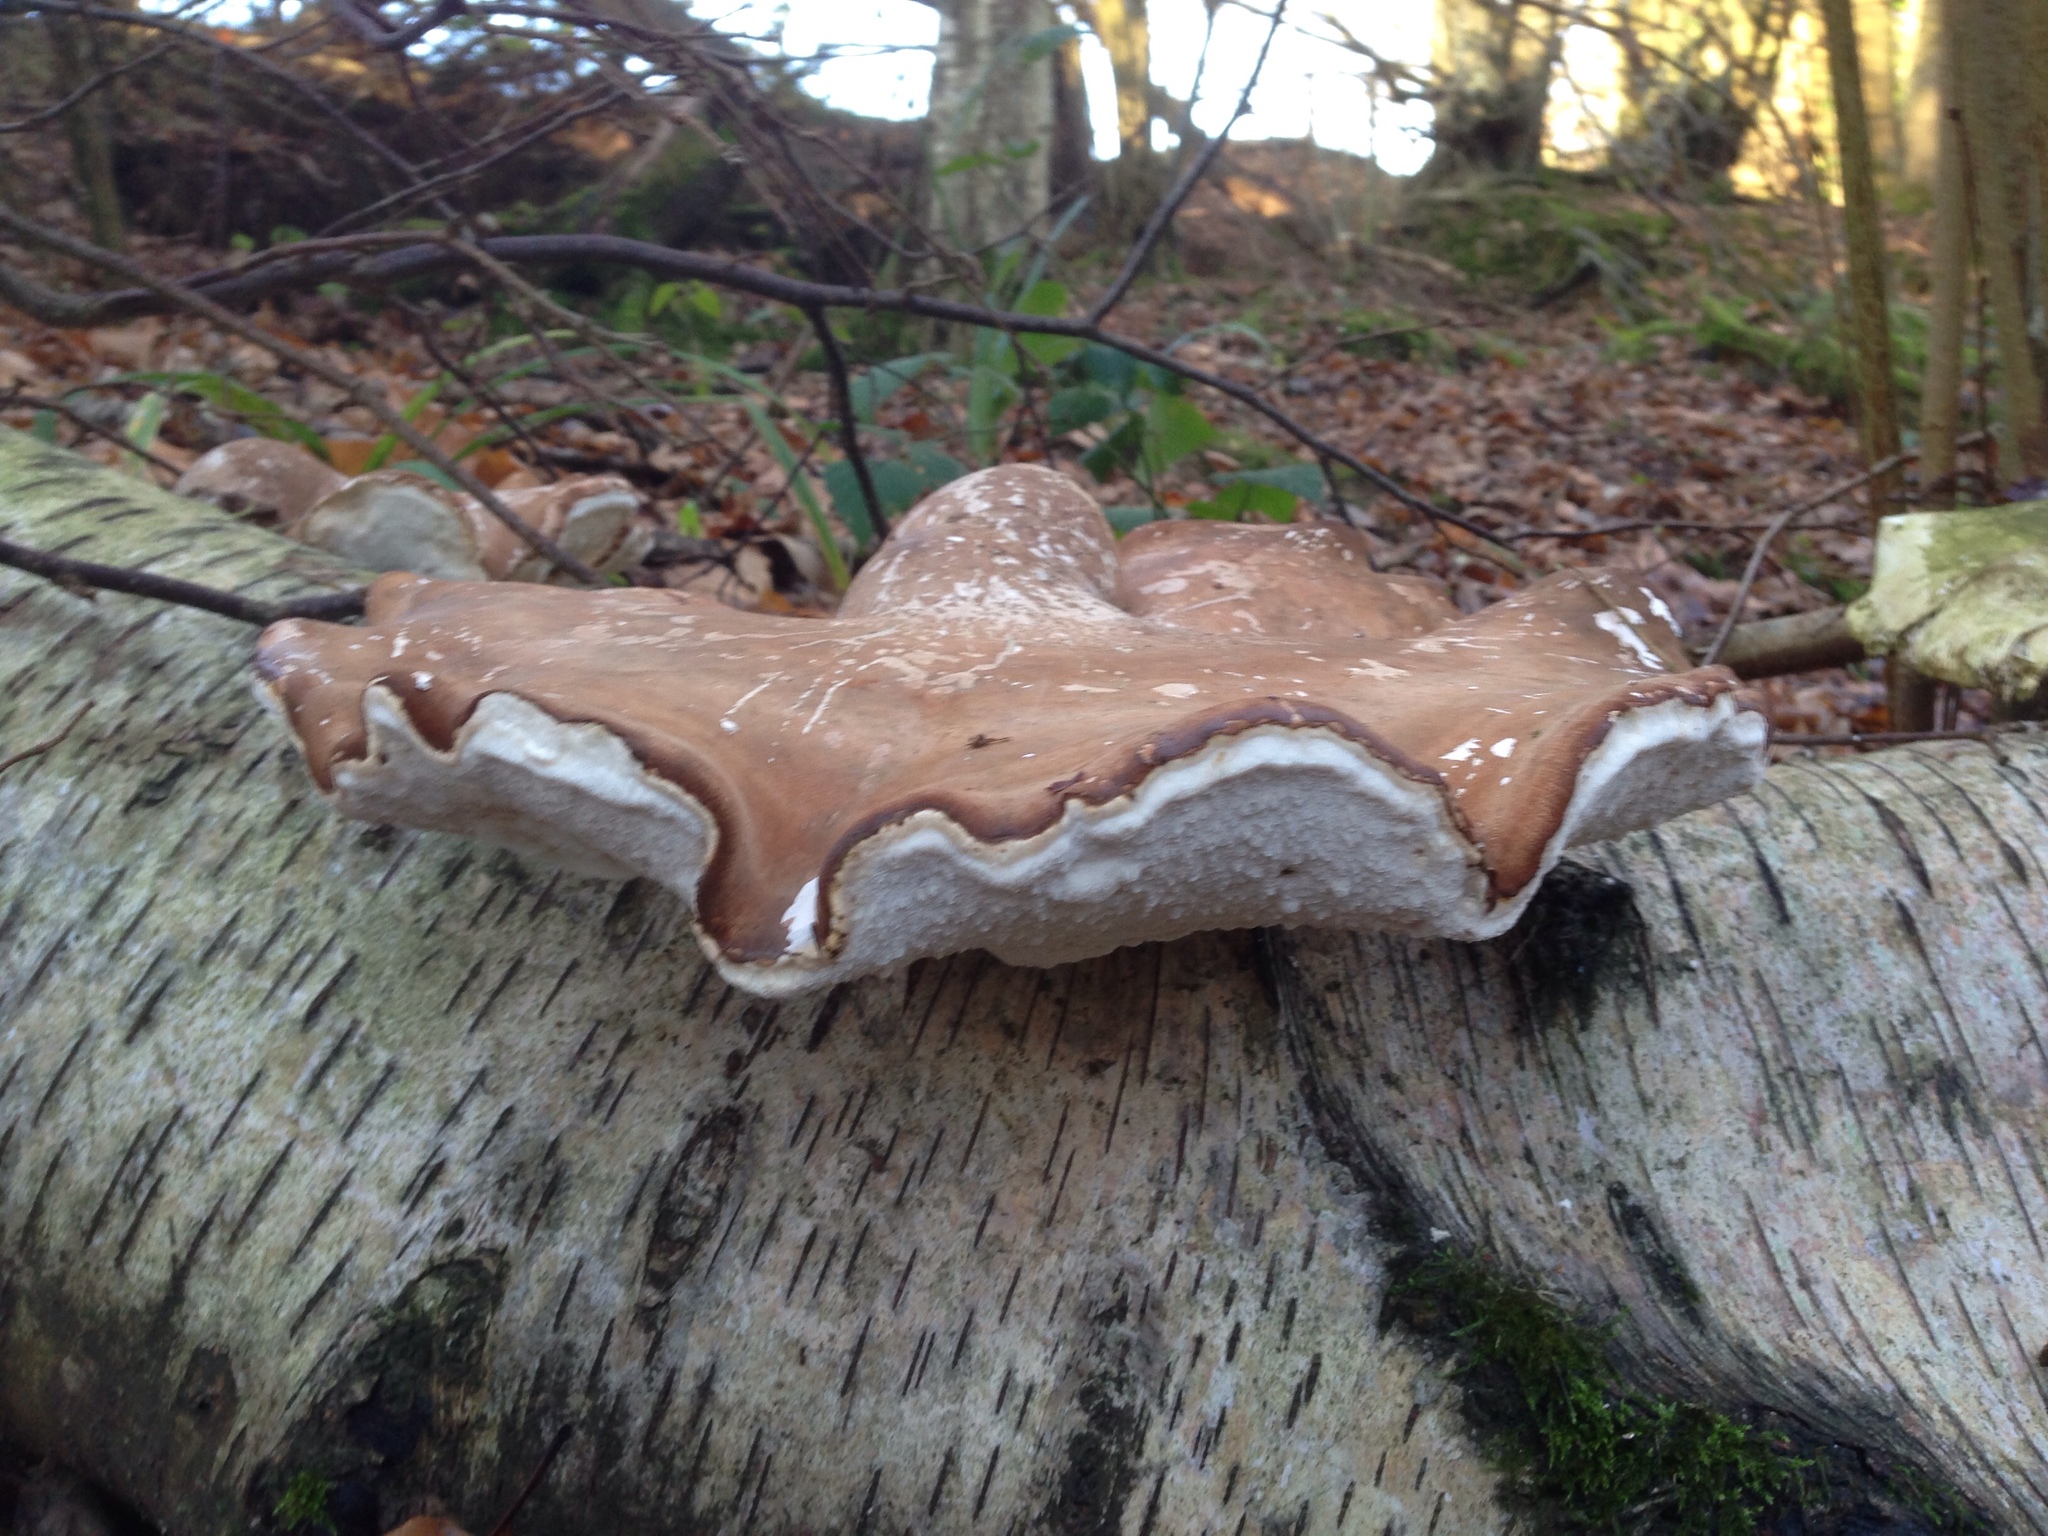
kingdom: Fungi
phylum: Basidiomycota
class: Agaricomycetes
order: Polyporales
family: Fomitopsidaceae
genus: Fomitopsis
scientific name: Fomitopsis betulina
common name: Birch polypore
